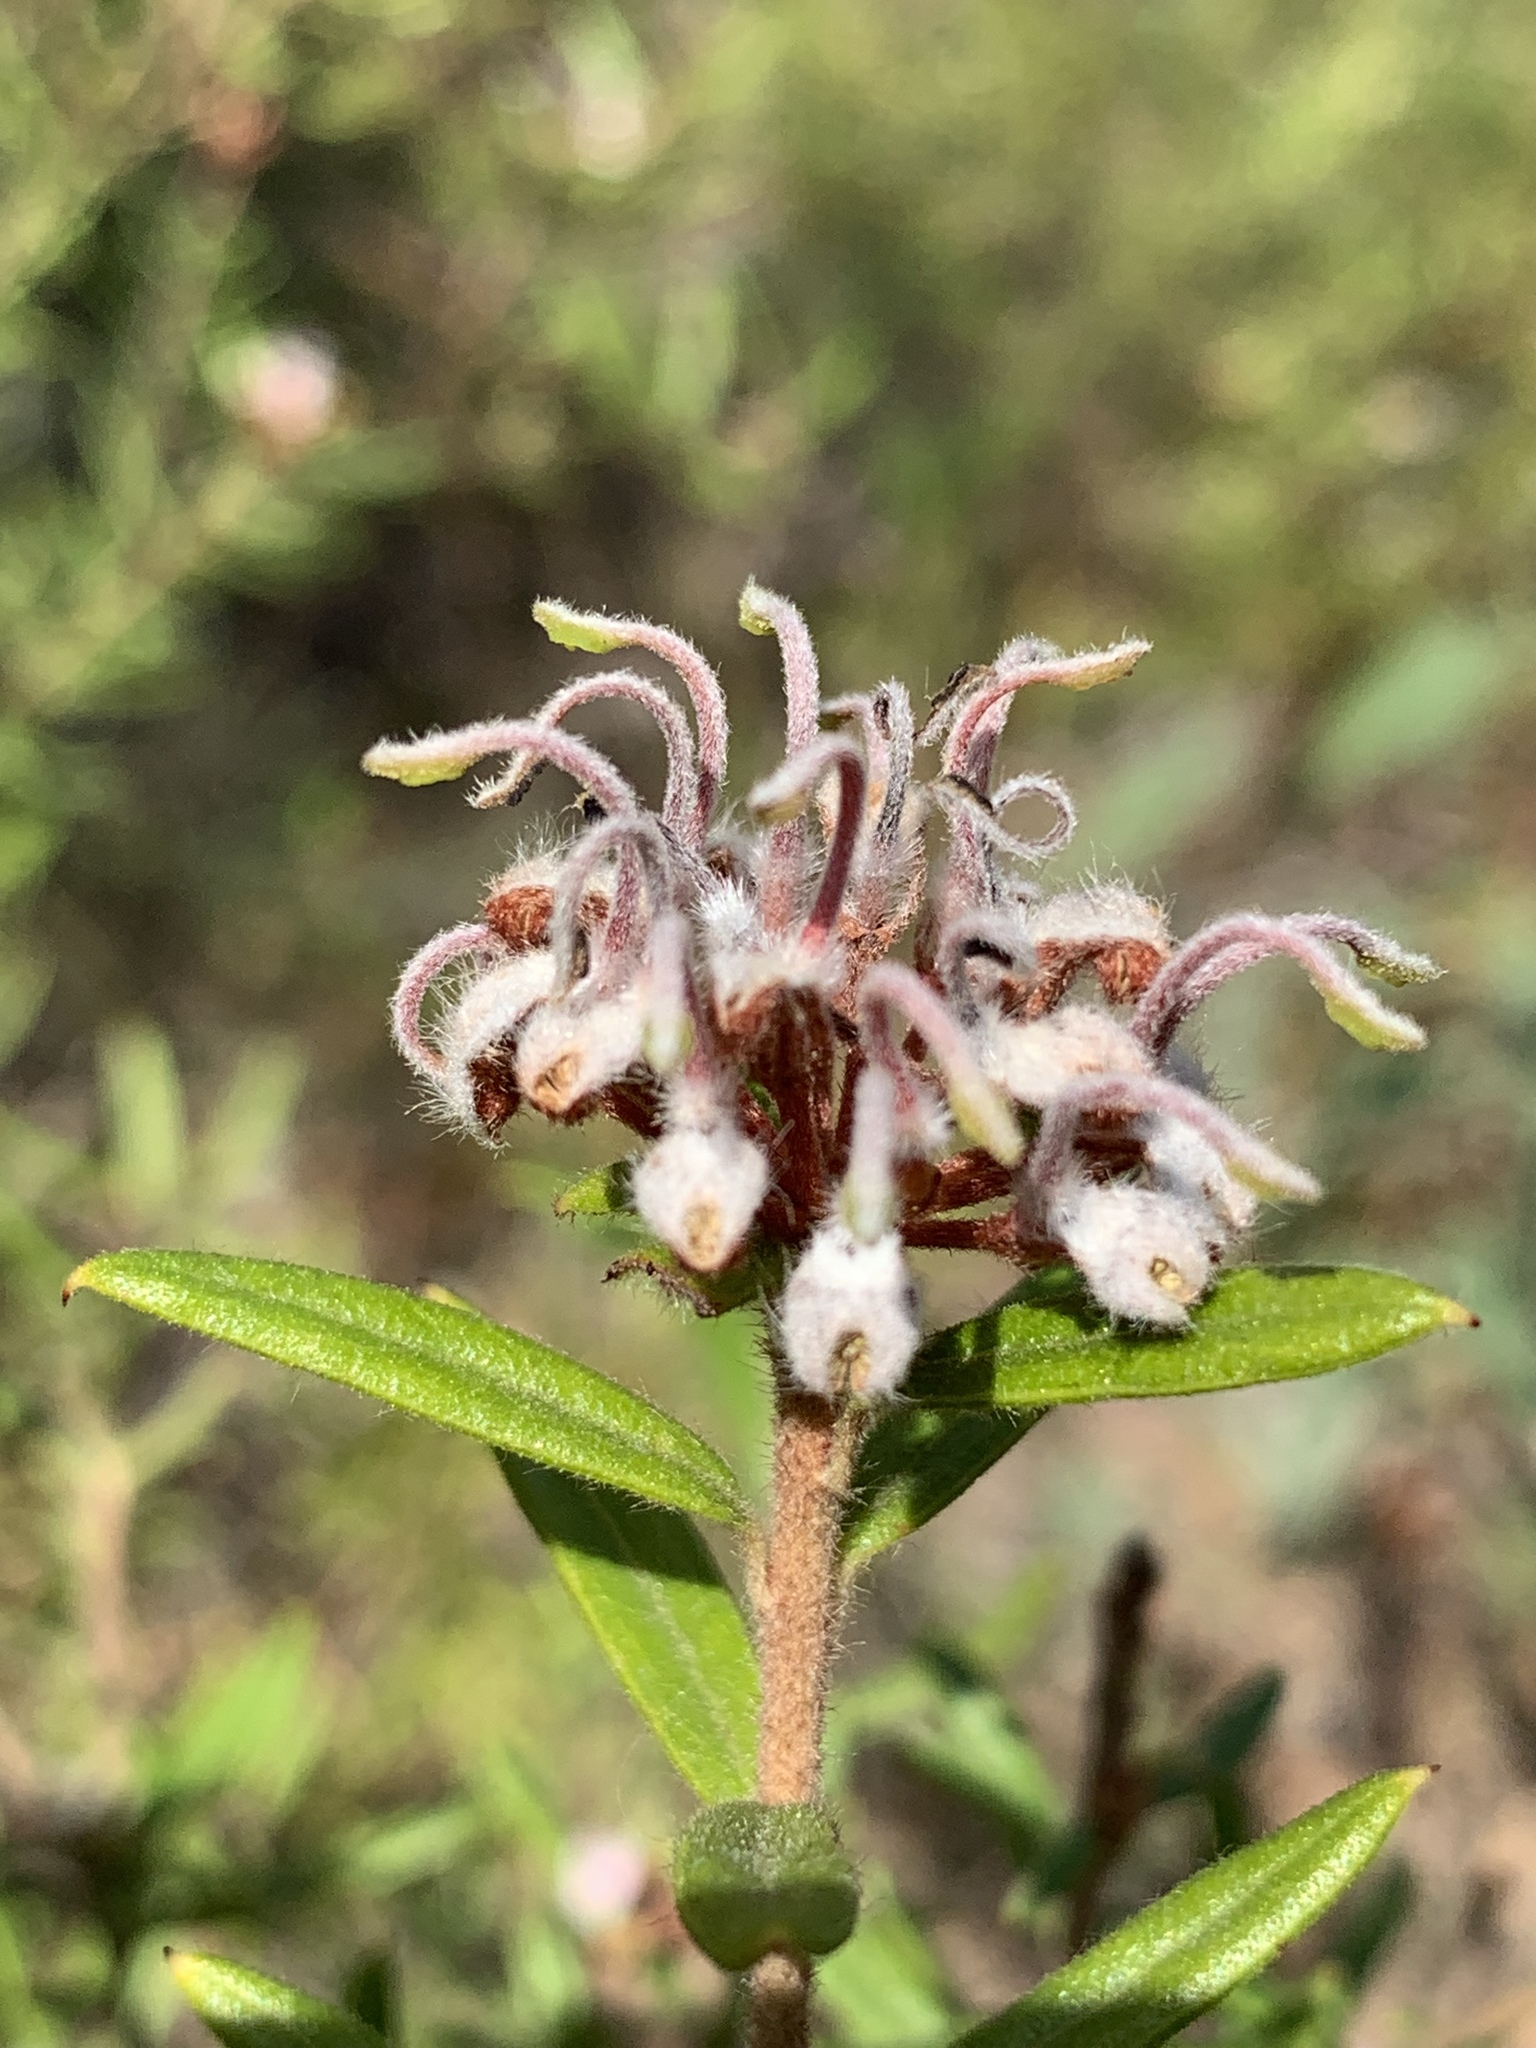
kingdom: Plantae
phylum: Tracheophyta
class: Magnoliopsida
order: Proteales
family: Proteaceae
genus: Grevillea
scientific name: Grevillea phylicoides
